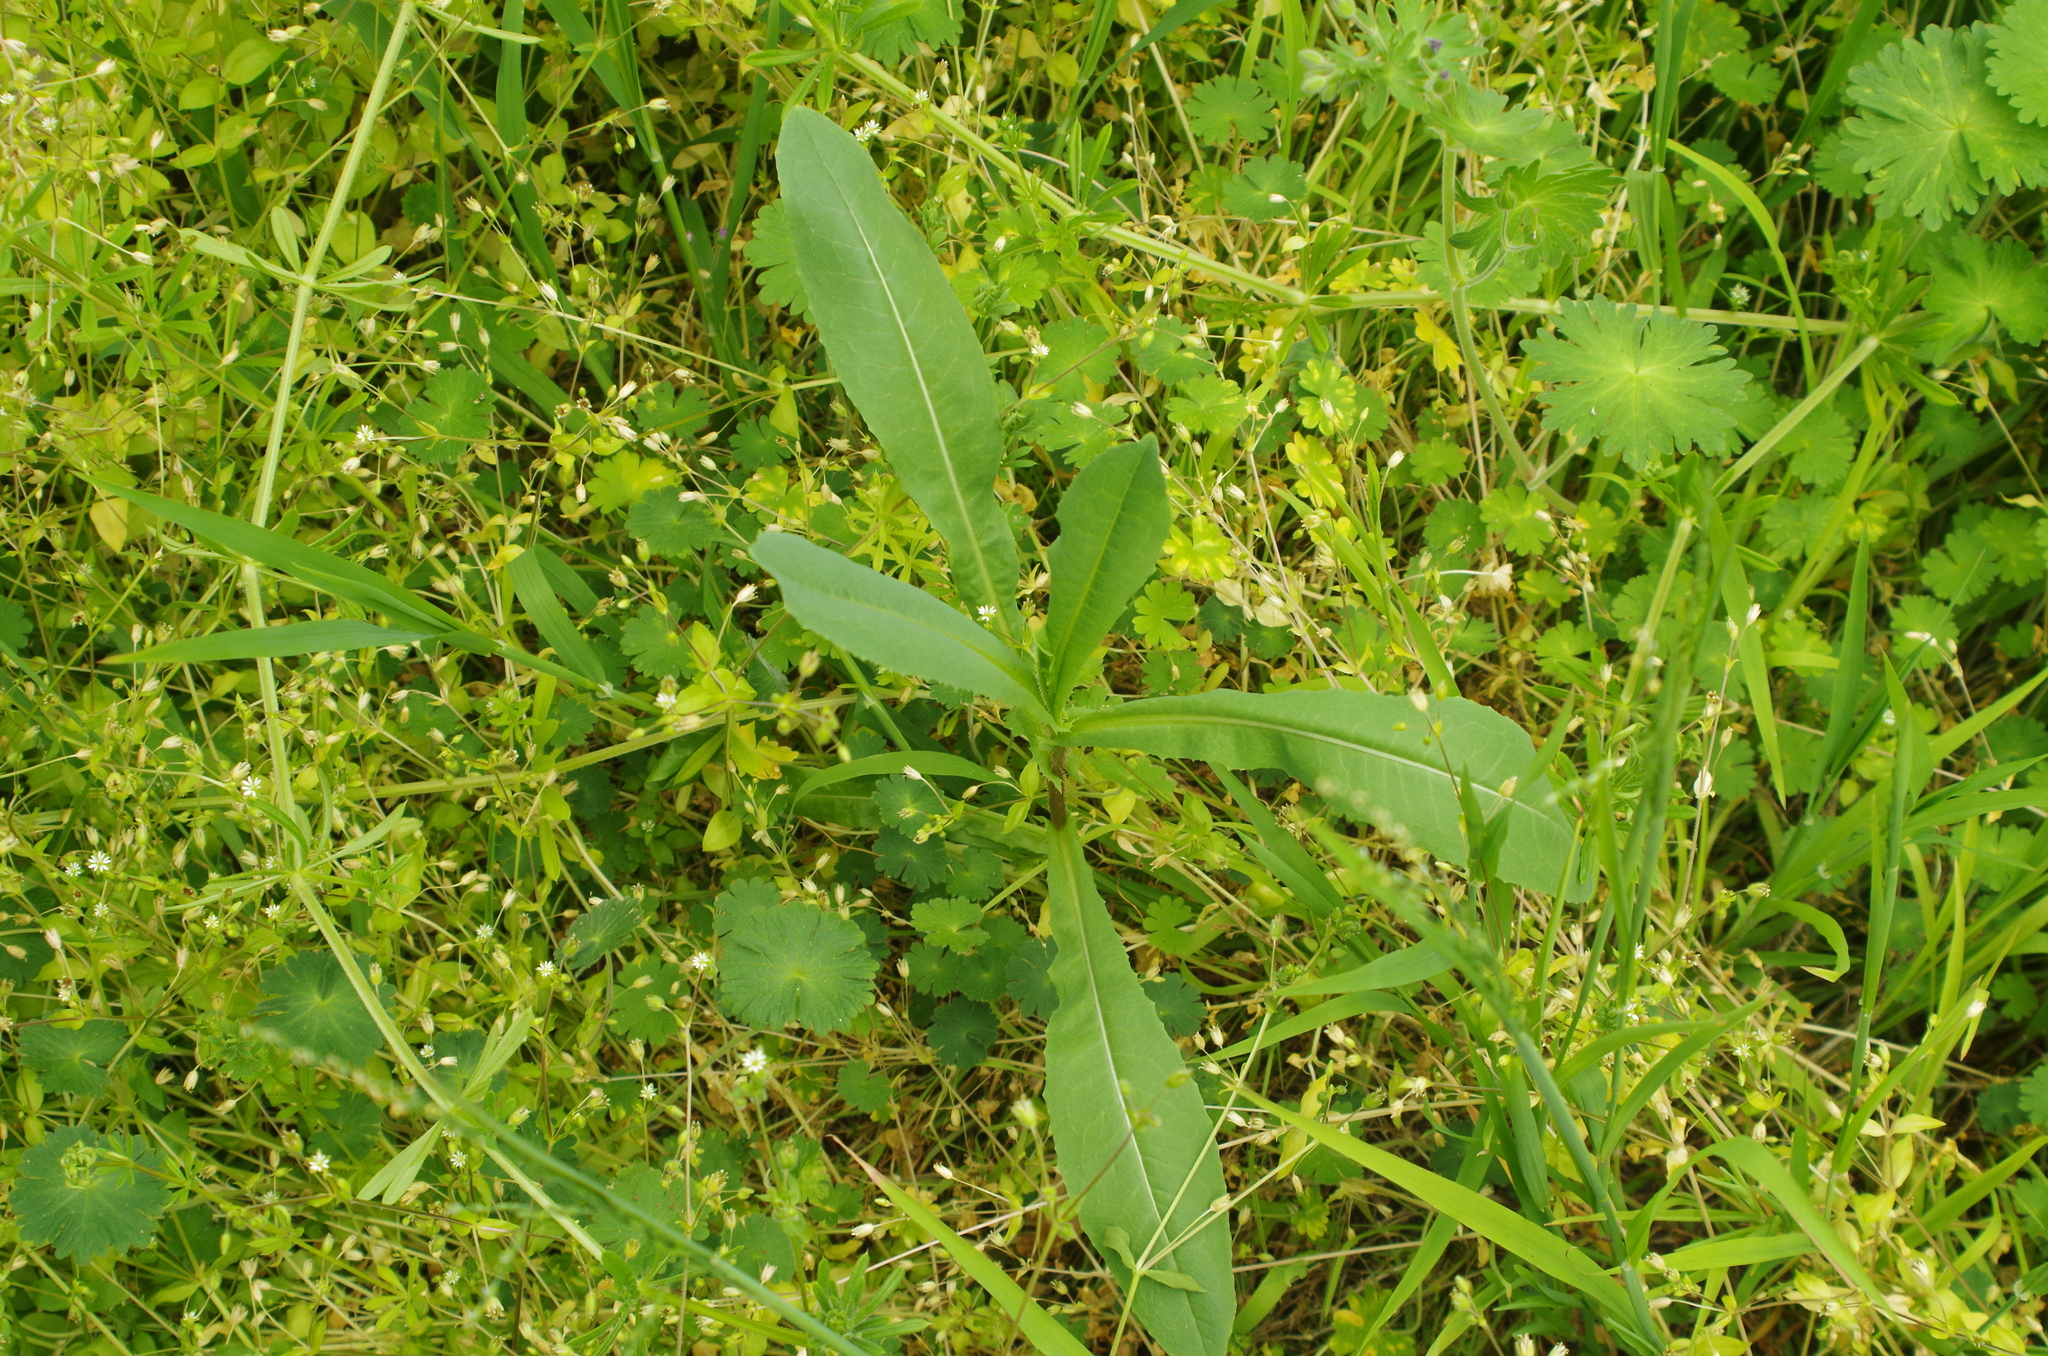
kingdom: Plantae
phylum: Tracheophyta
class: Magnoliopsida
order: Asterales
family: Asteraceae
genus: Lactuca
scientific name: Lactuca serriola
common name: Prickly lettuce
